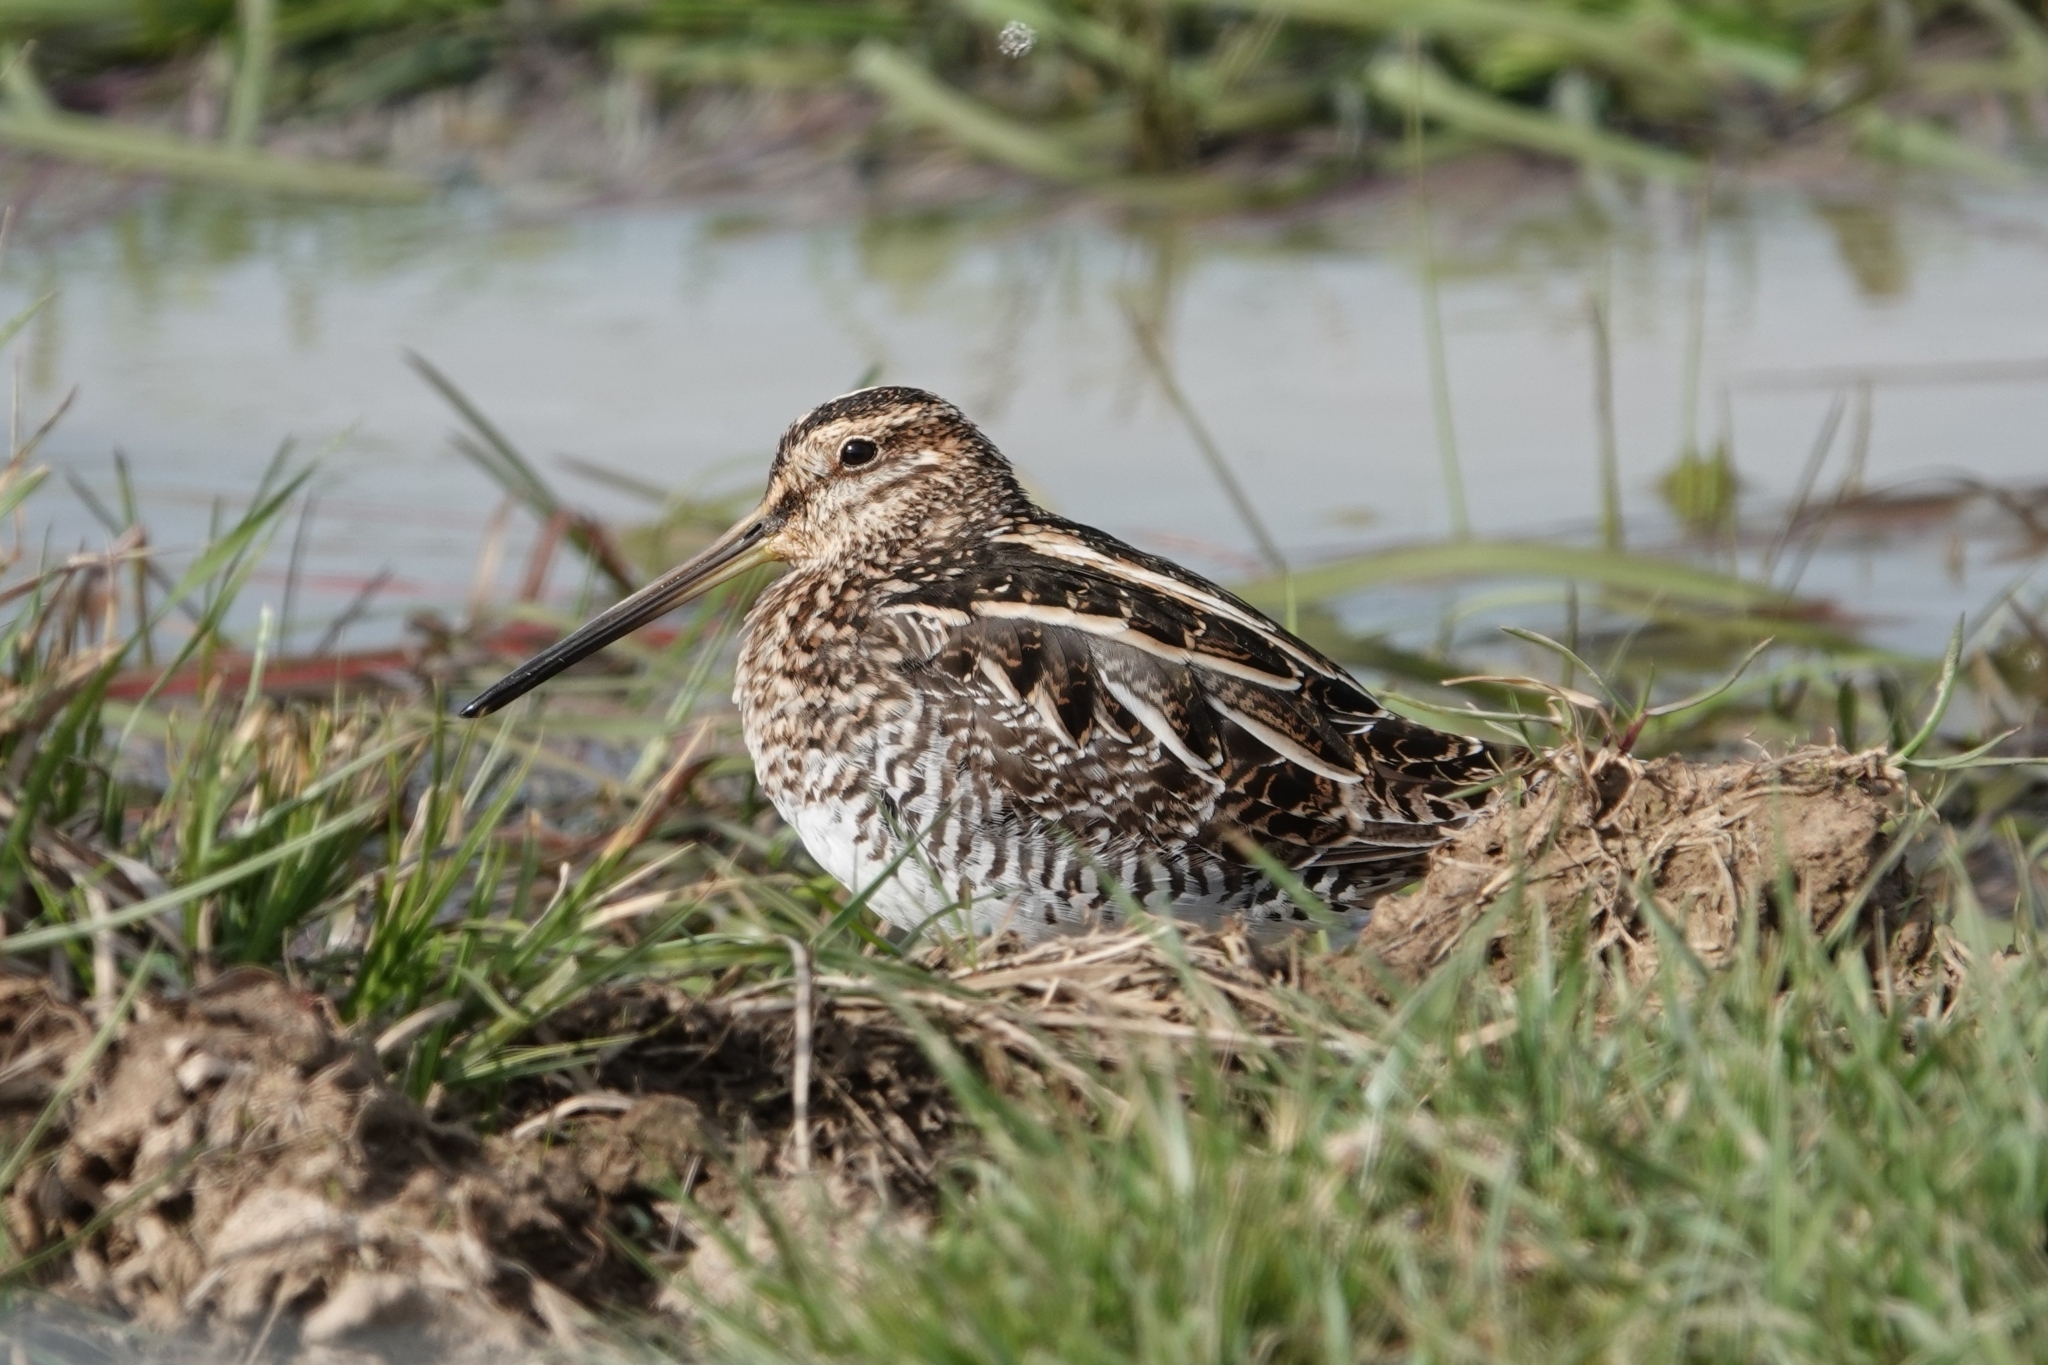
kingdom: Animalia
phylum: Chordata
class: Aves
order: Charadriiformes
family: Scolopacidae
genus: Gallinago
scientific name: Gallinago delicata
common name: Wilson's snipe
